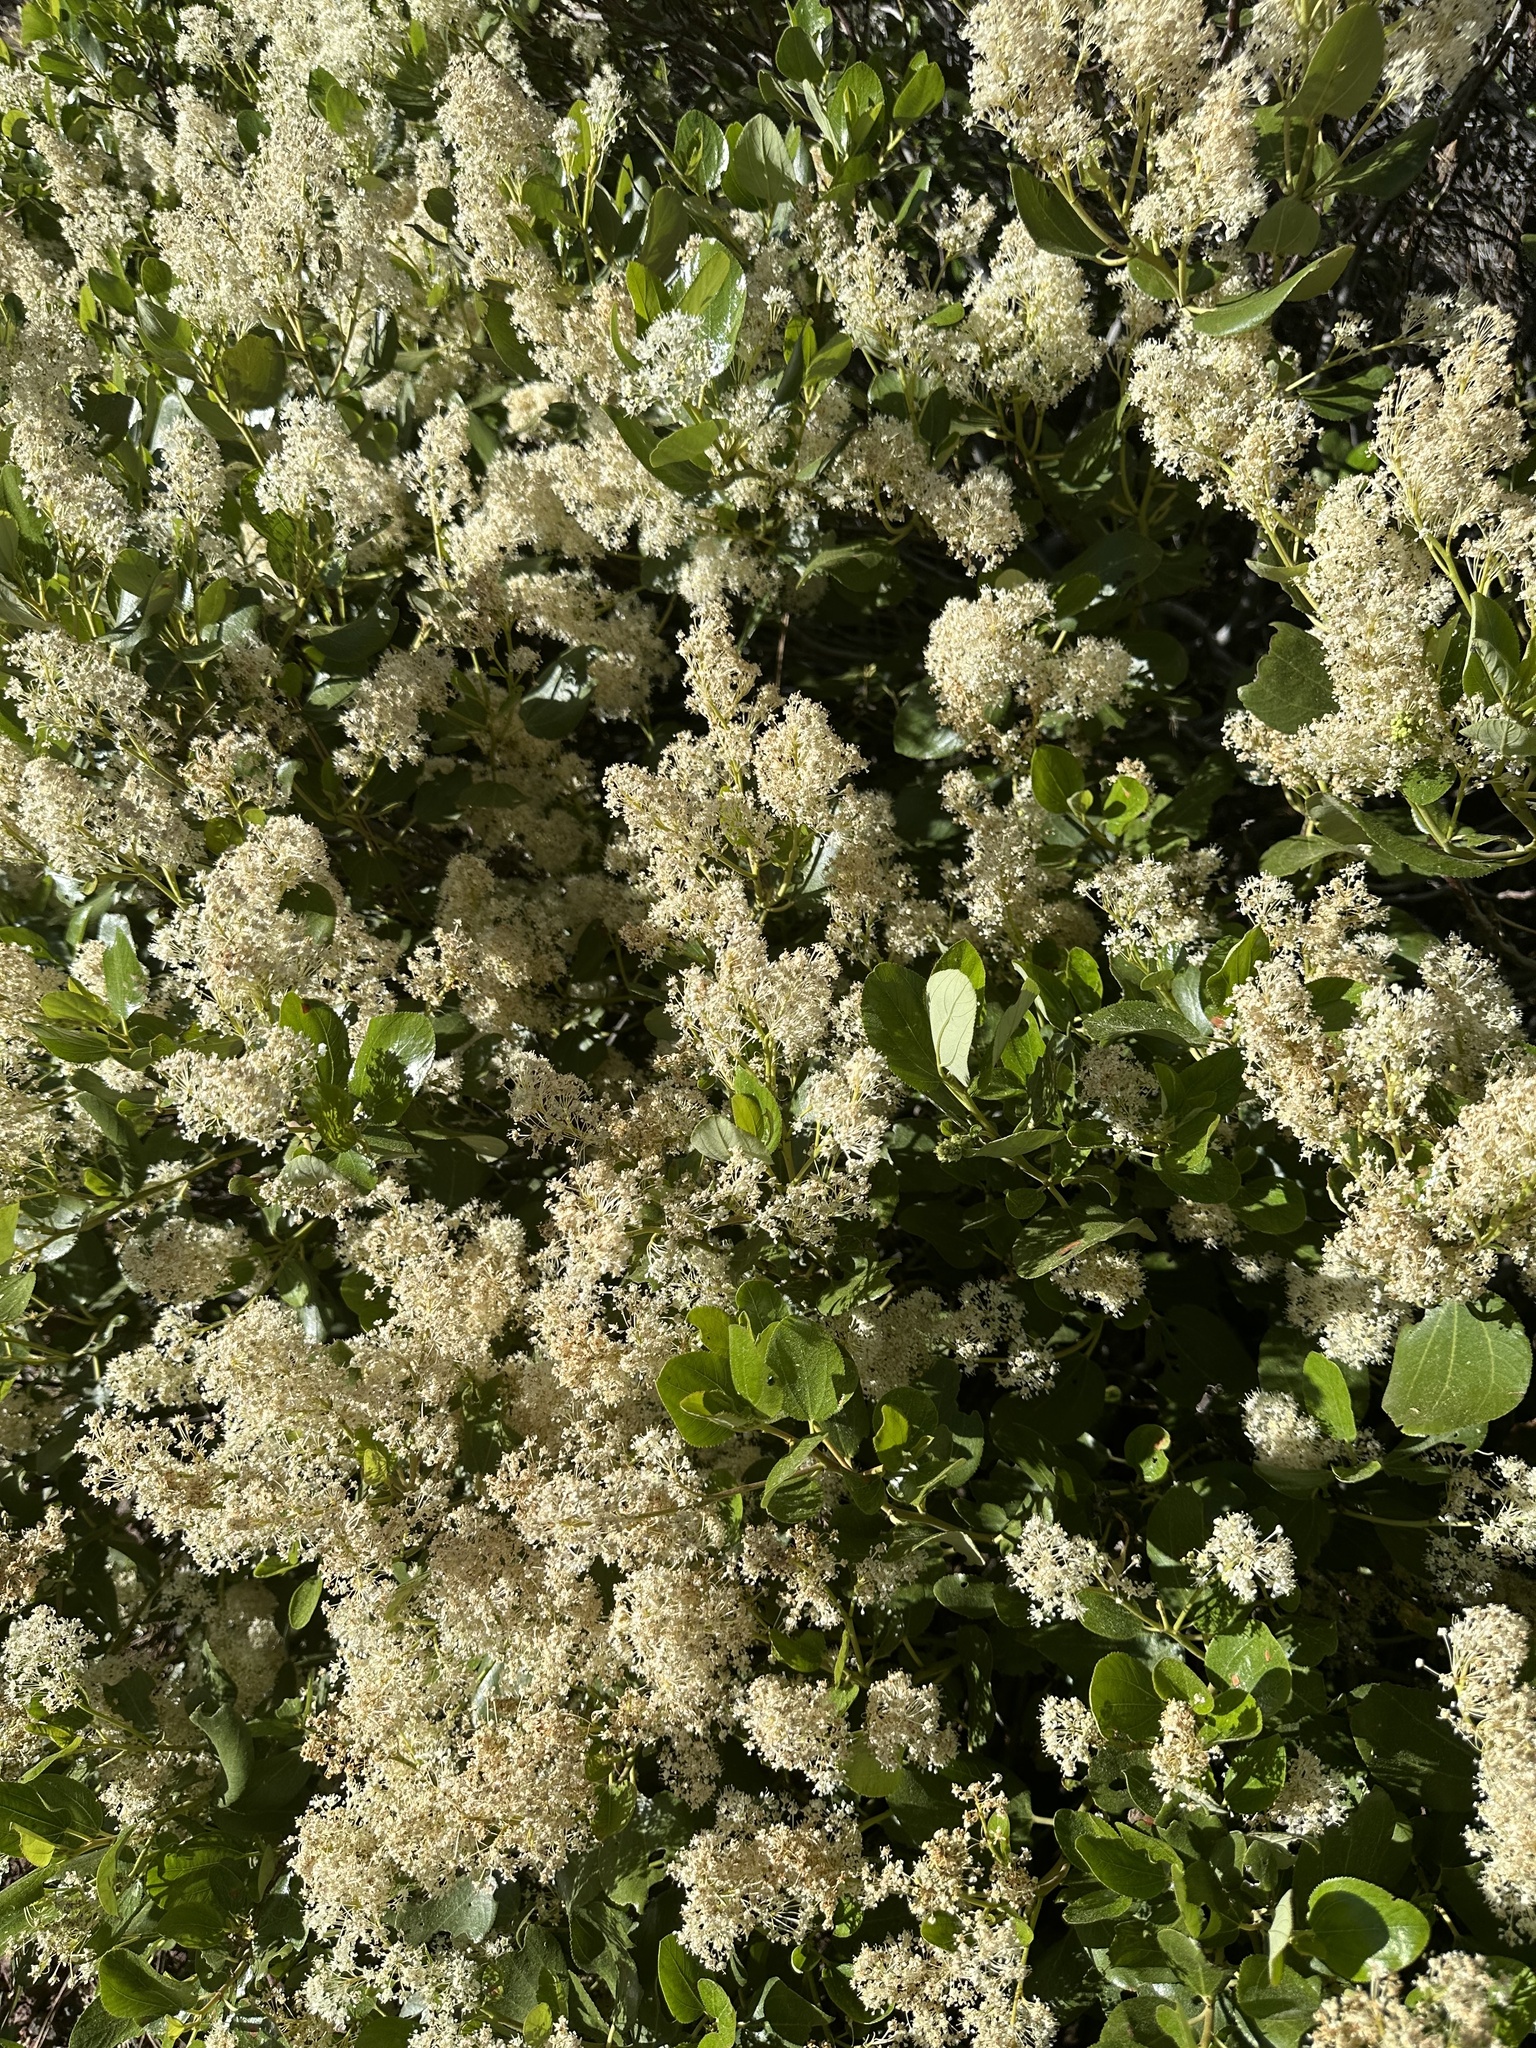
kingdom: Plantae
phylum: Tracheophyta
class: Magnoliopsida
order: Rosales
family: Rhamnaceae
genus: Ceanothus
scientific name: Ceanothus velutinus
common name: Snowbrush
